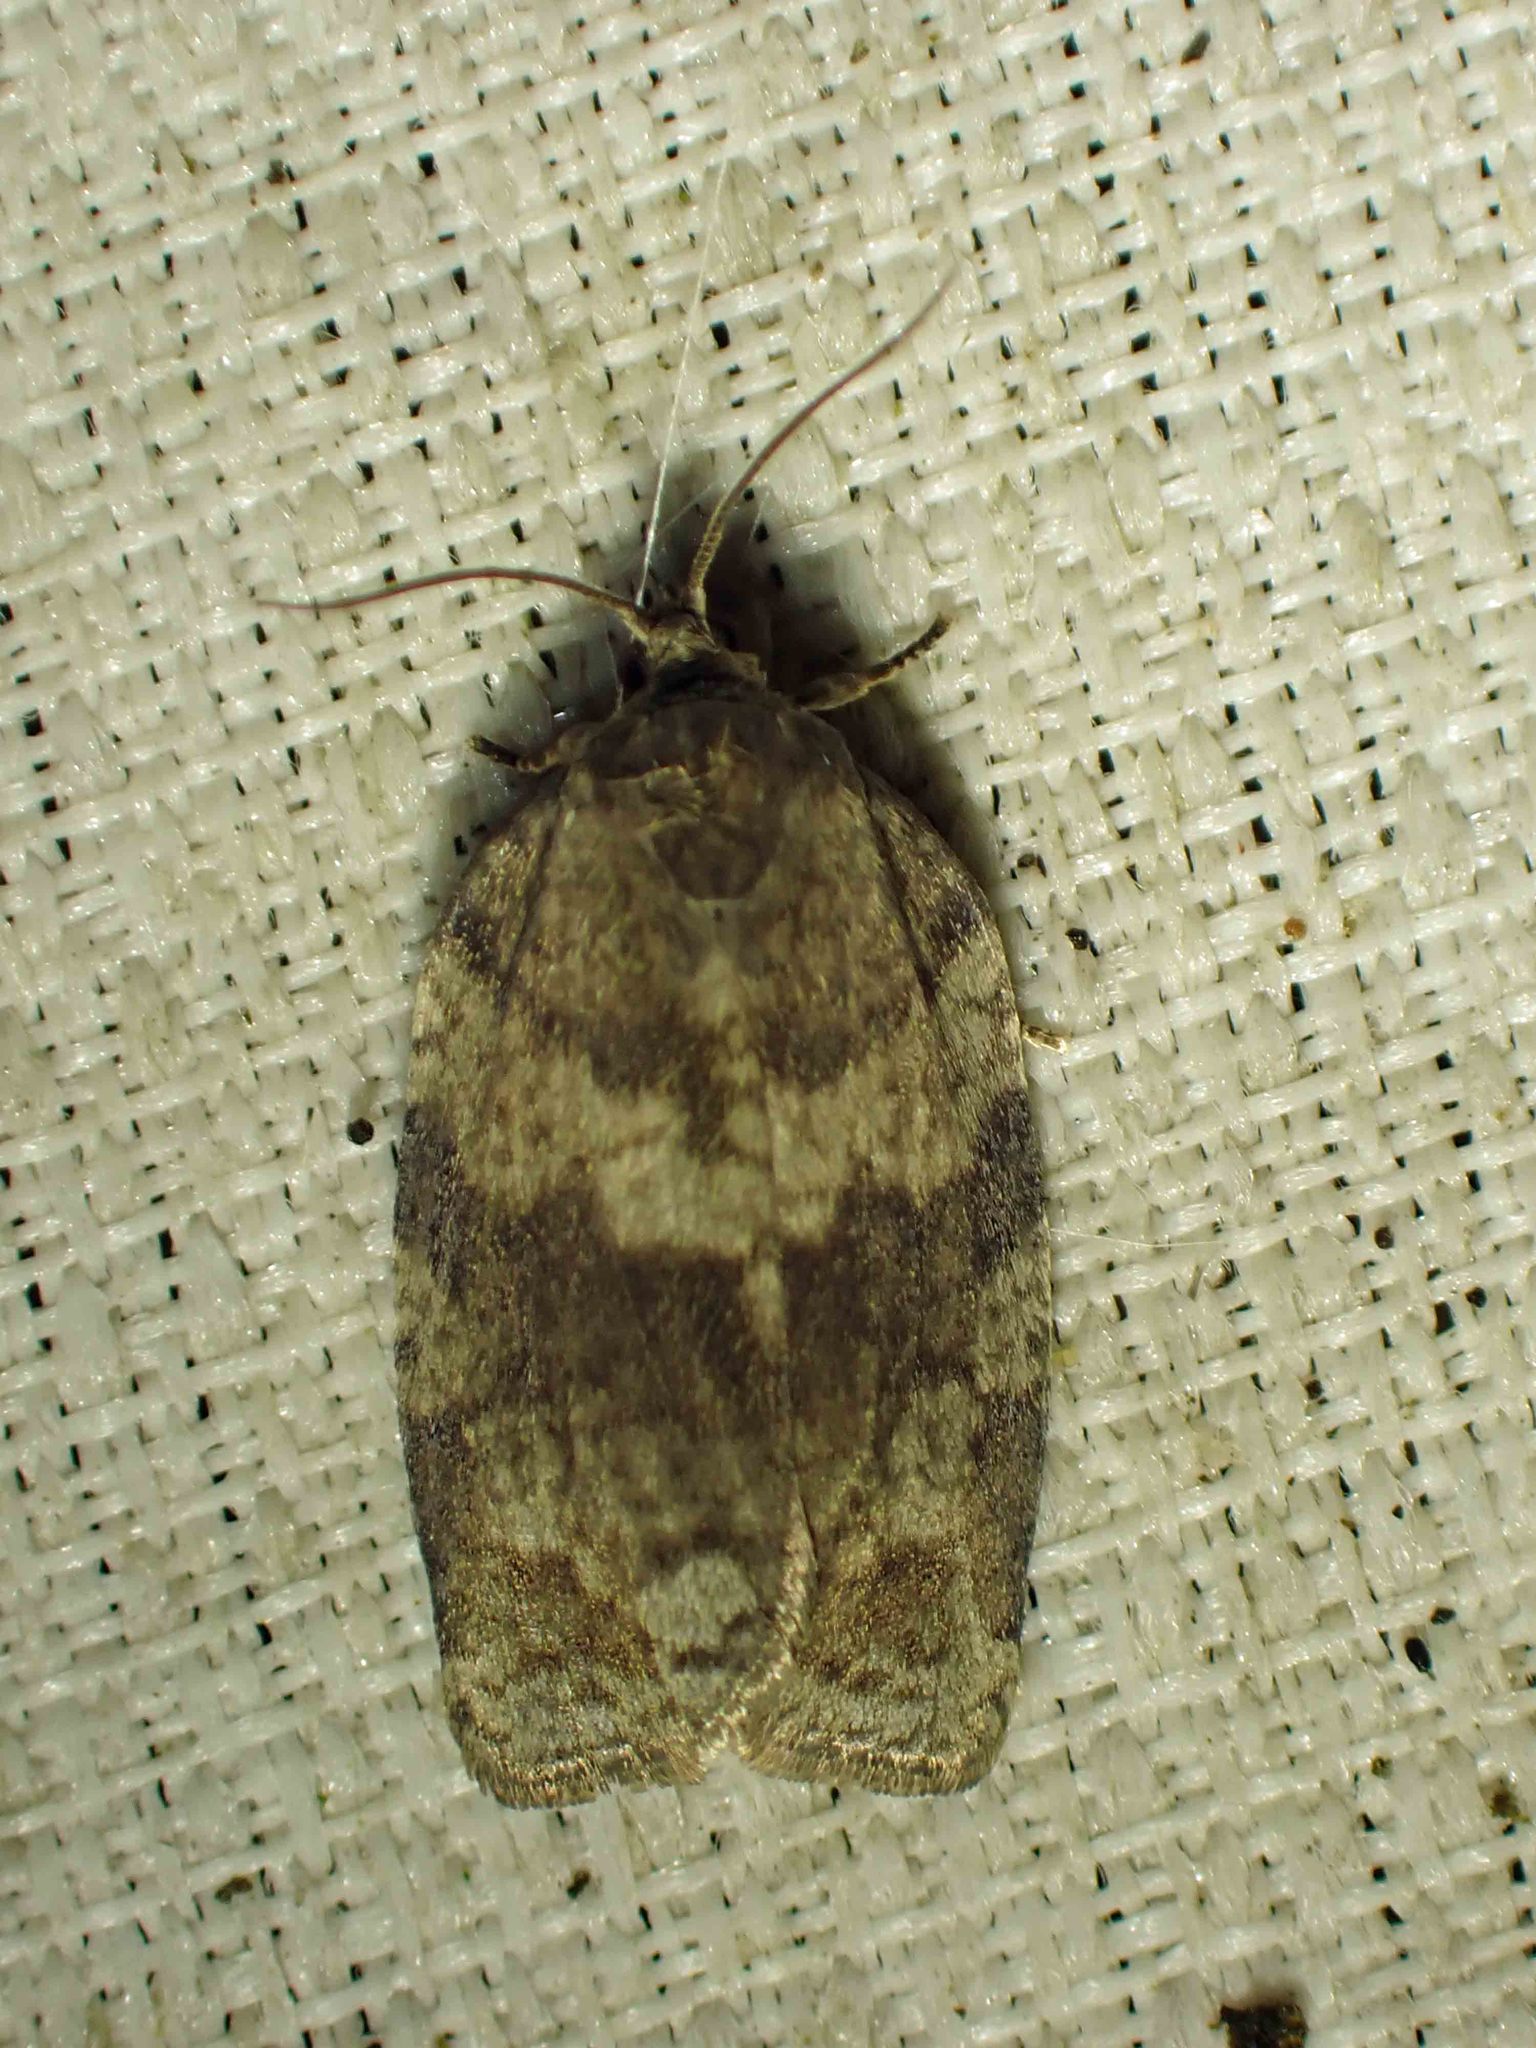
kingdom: Animalia
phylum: Arthropoda
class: Insecta
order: Lepidoptera
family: Tortricidae
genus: Choristoneura
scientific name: Choristoneura conflictana
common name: Large aspen tortrix
